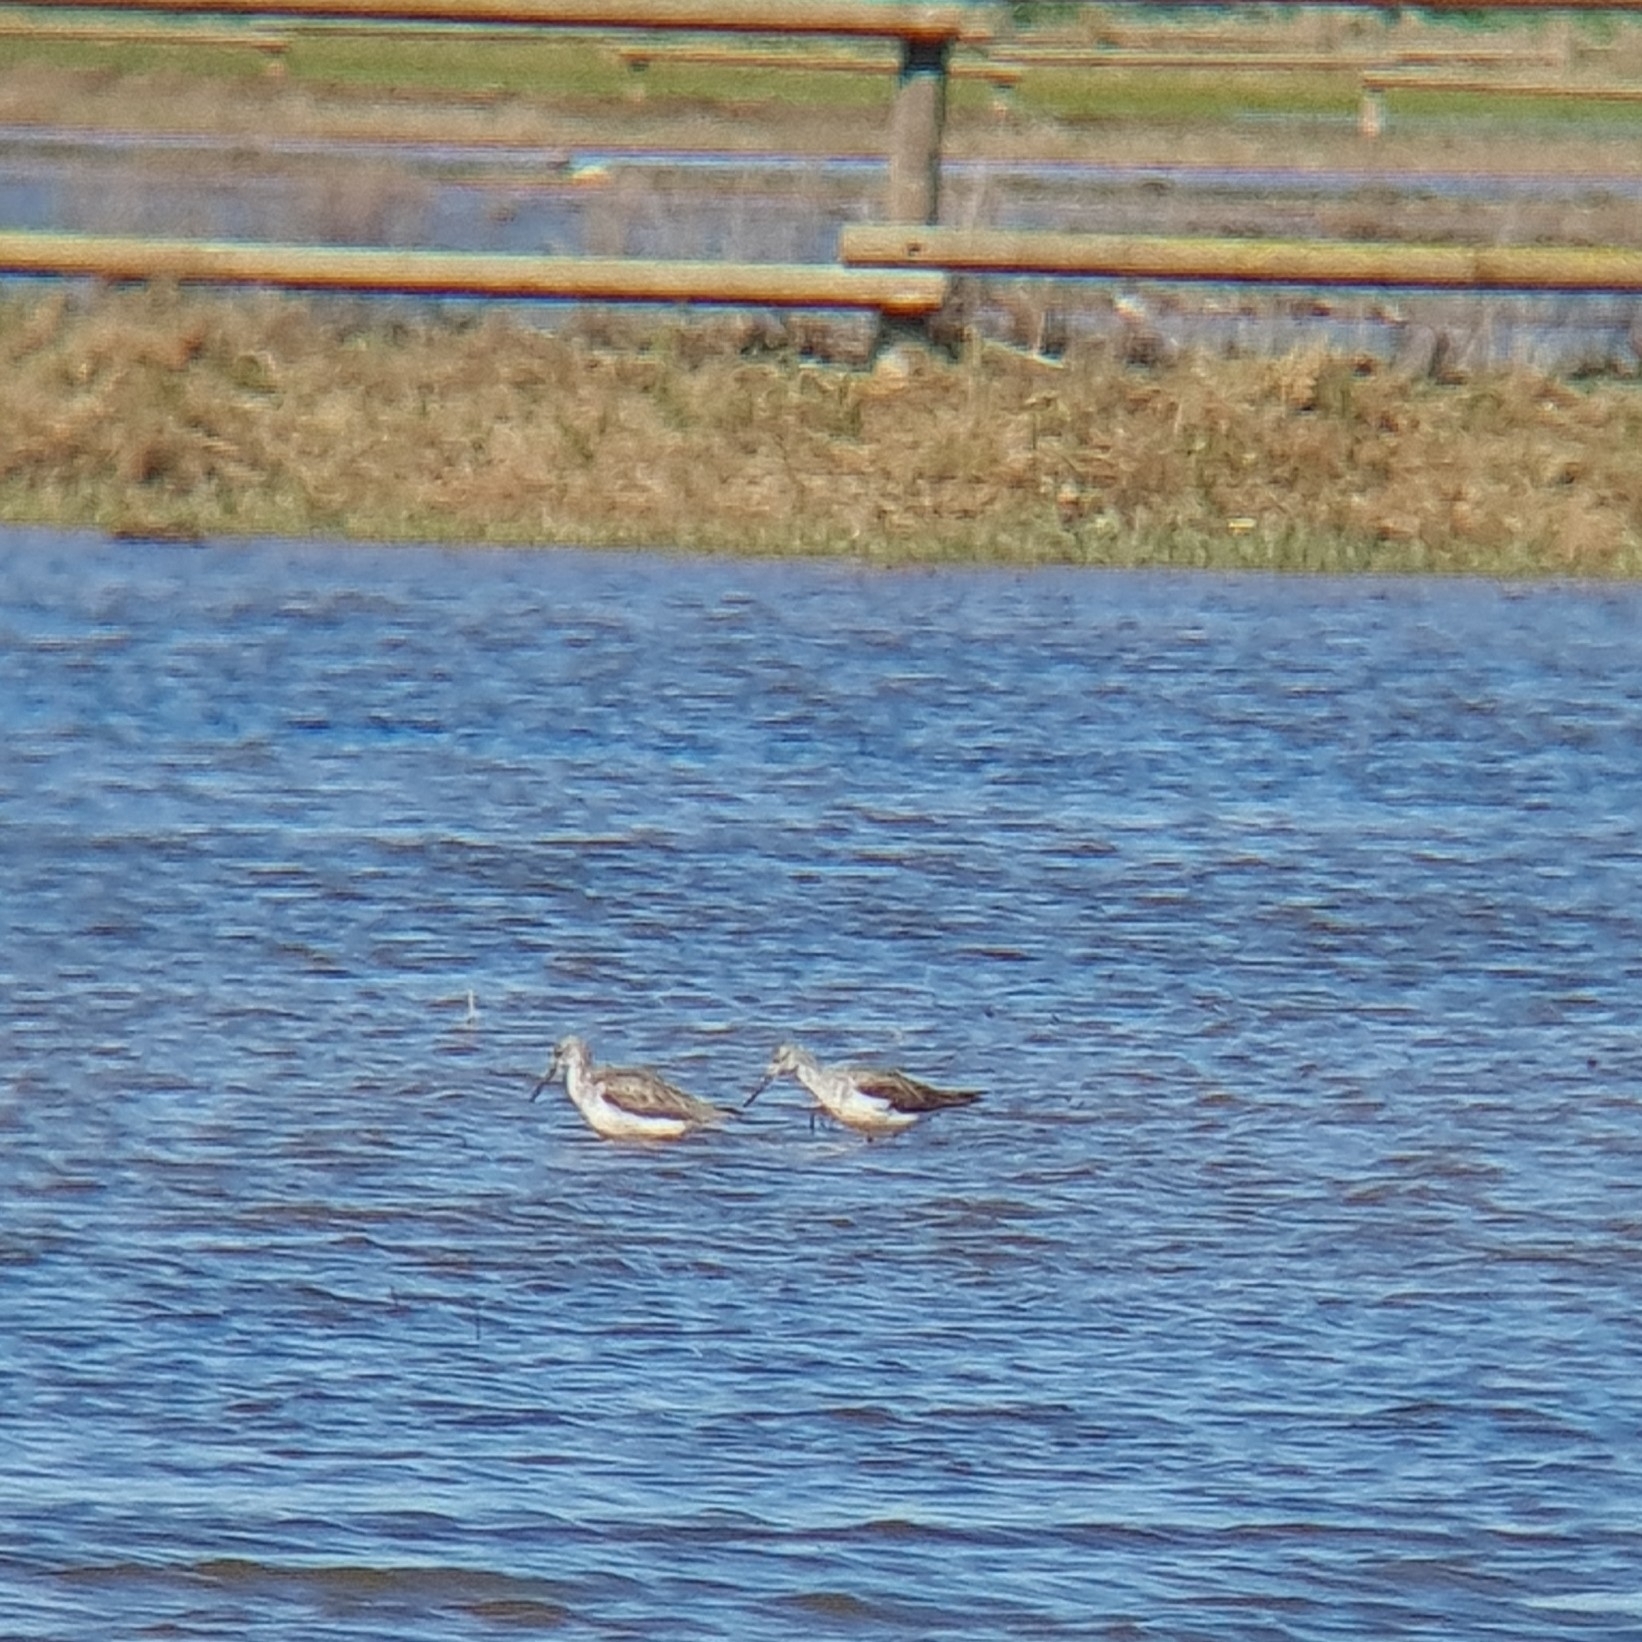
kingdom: Animalia
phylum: Chordata
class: Aves
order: Charadriiformes
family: Scolopacidae
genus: Tringa
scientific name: Tringa nebularia
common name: Common greenshank
